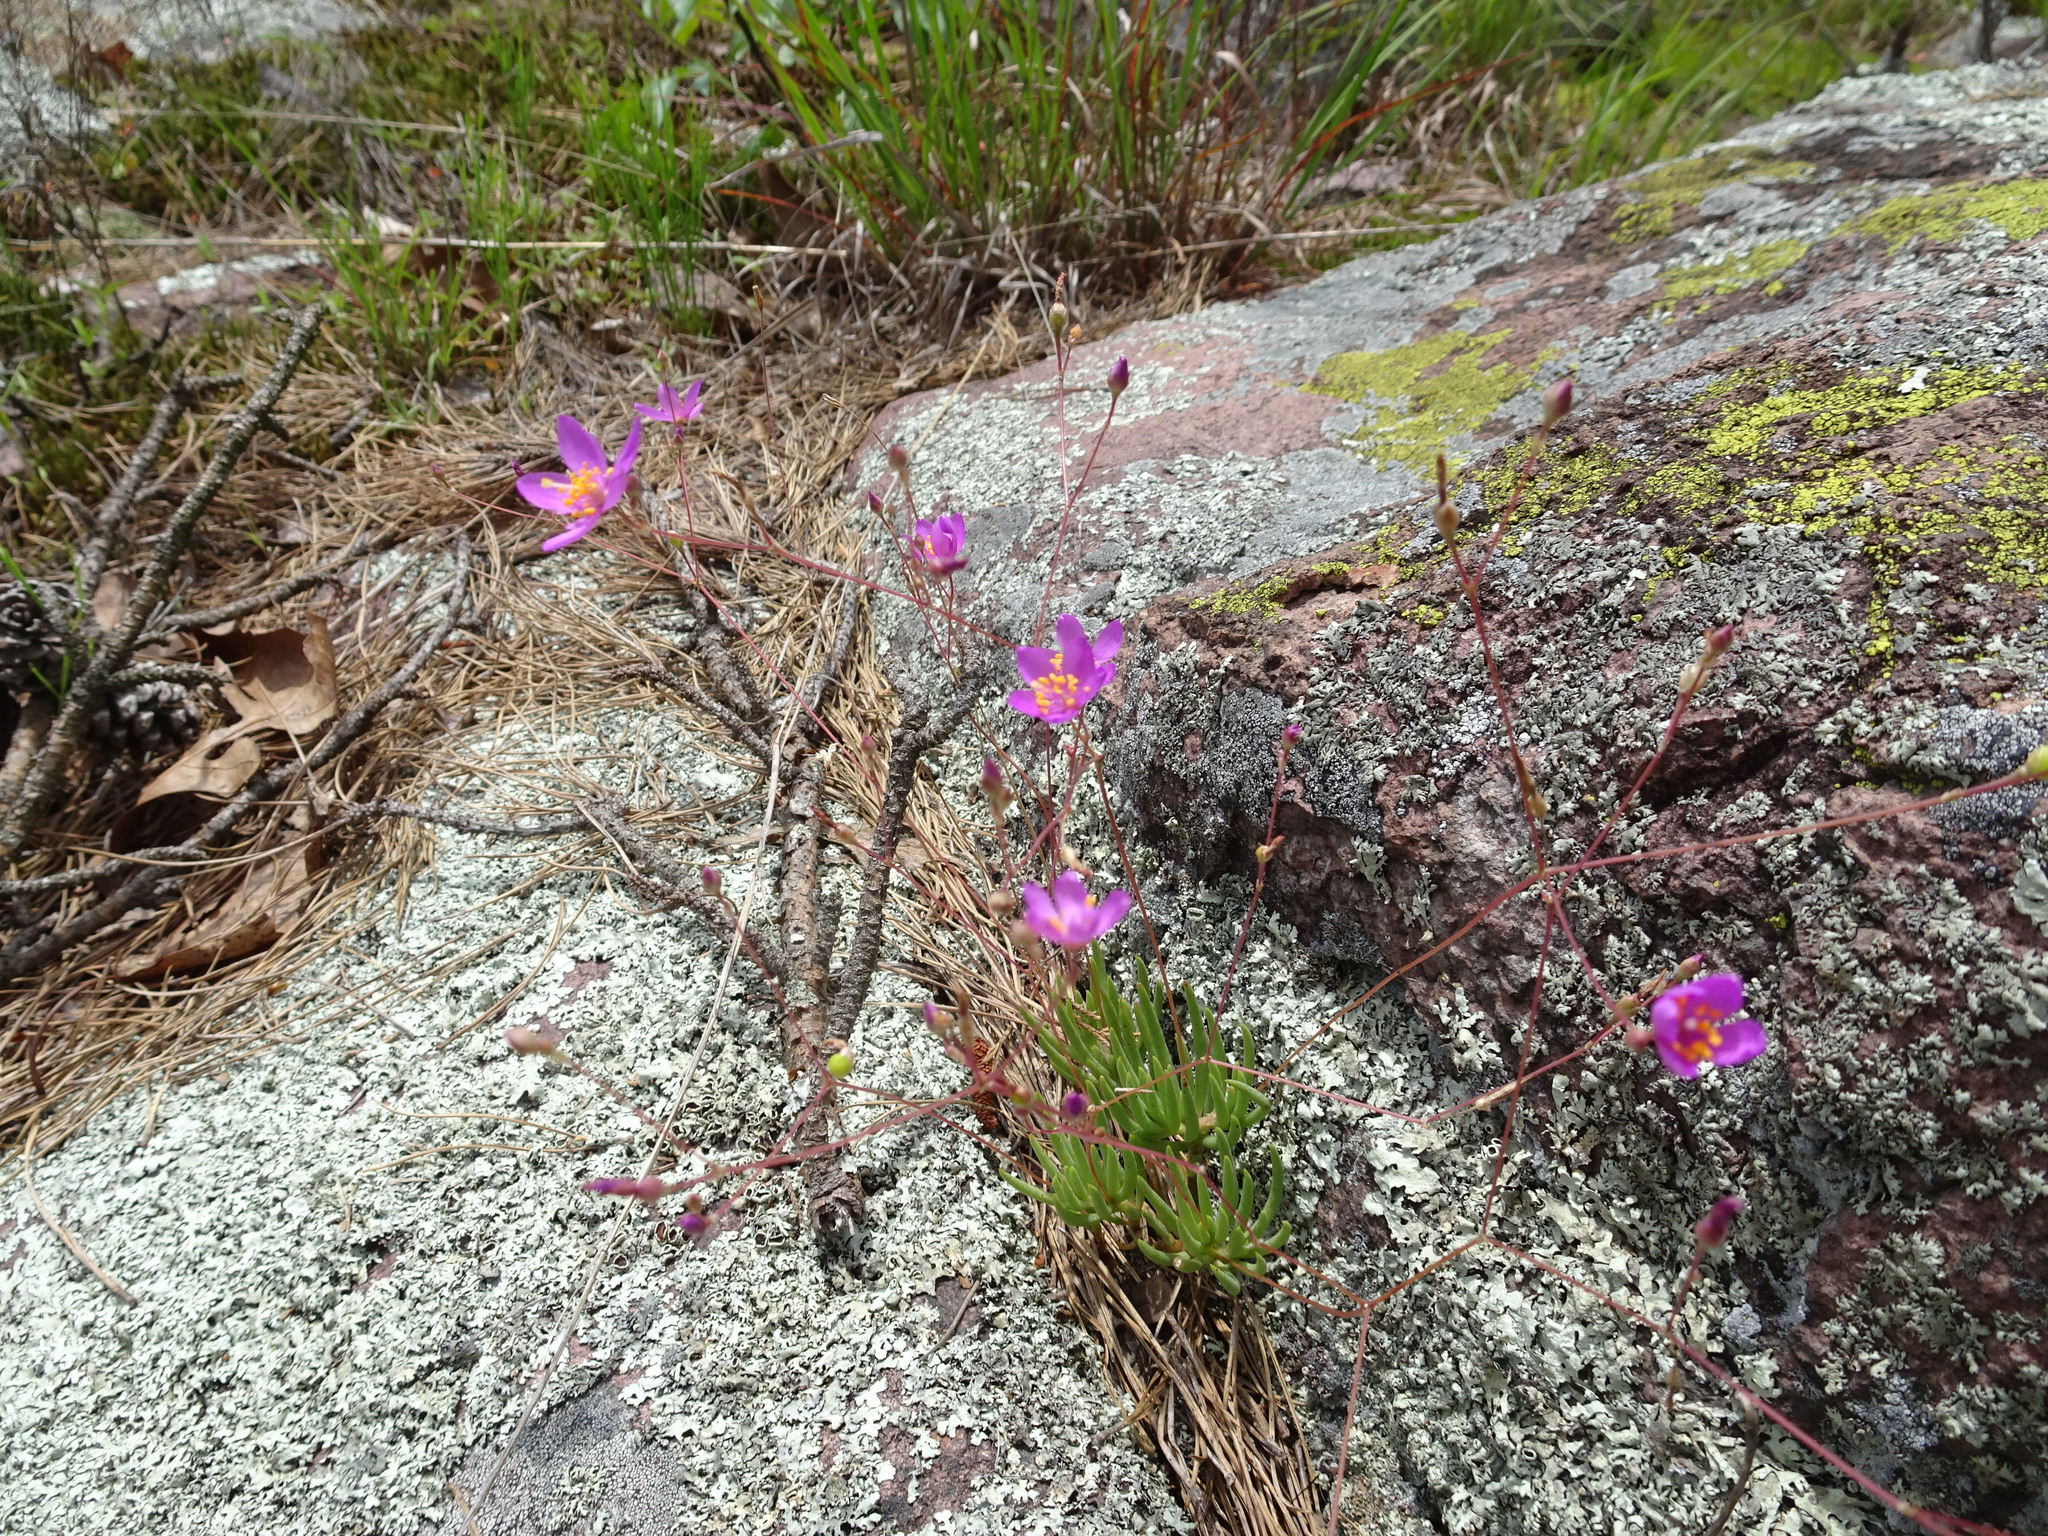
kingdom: Plantae
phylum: Tracheophyta
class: Magnoliopsida
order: Caryophyllales
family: Montiaceae
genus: Phemeranthus
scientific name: Phemeranthus calycinus
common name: Largeflower fameflower
